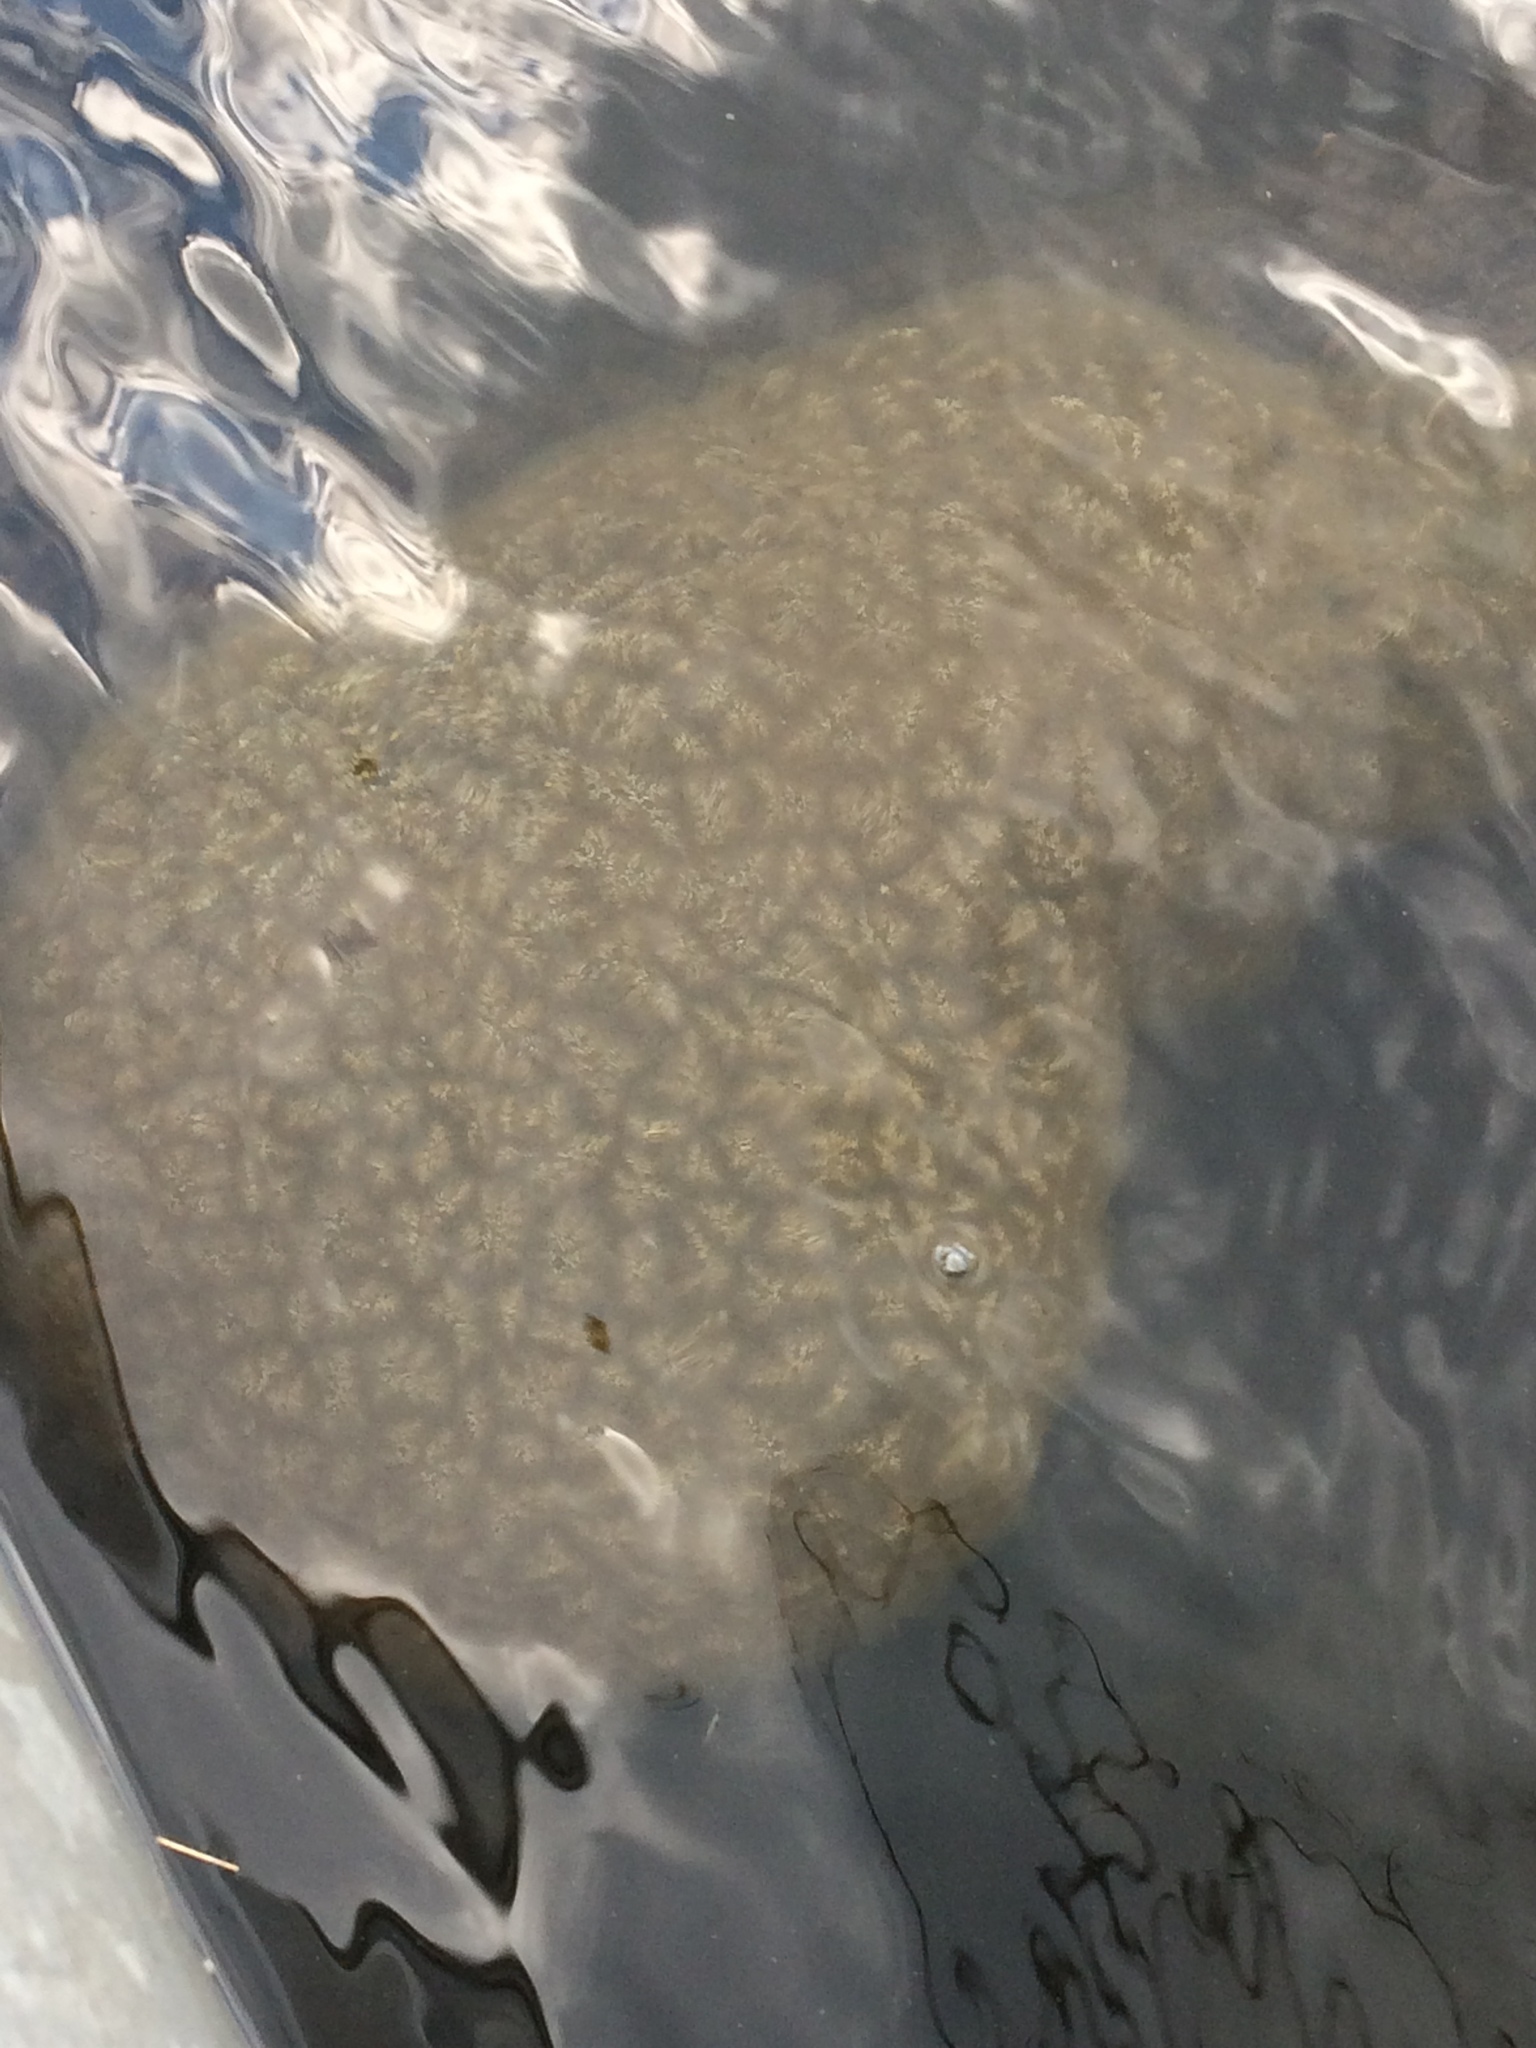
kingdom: Animalia
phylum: Bryozoa
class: Phylactolaemata
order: Plumatellida
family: Pectinatellidae
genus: Pectinatella
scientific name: Pectinatella magnifica
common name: Magnificent bryozoan
